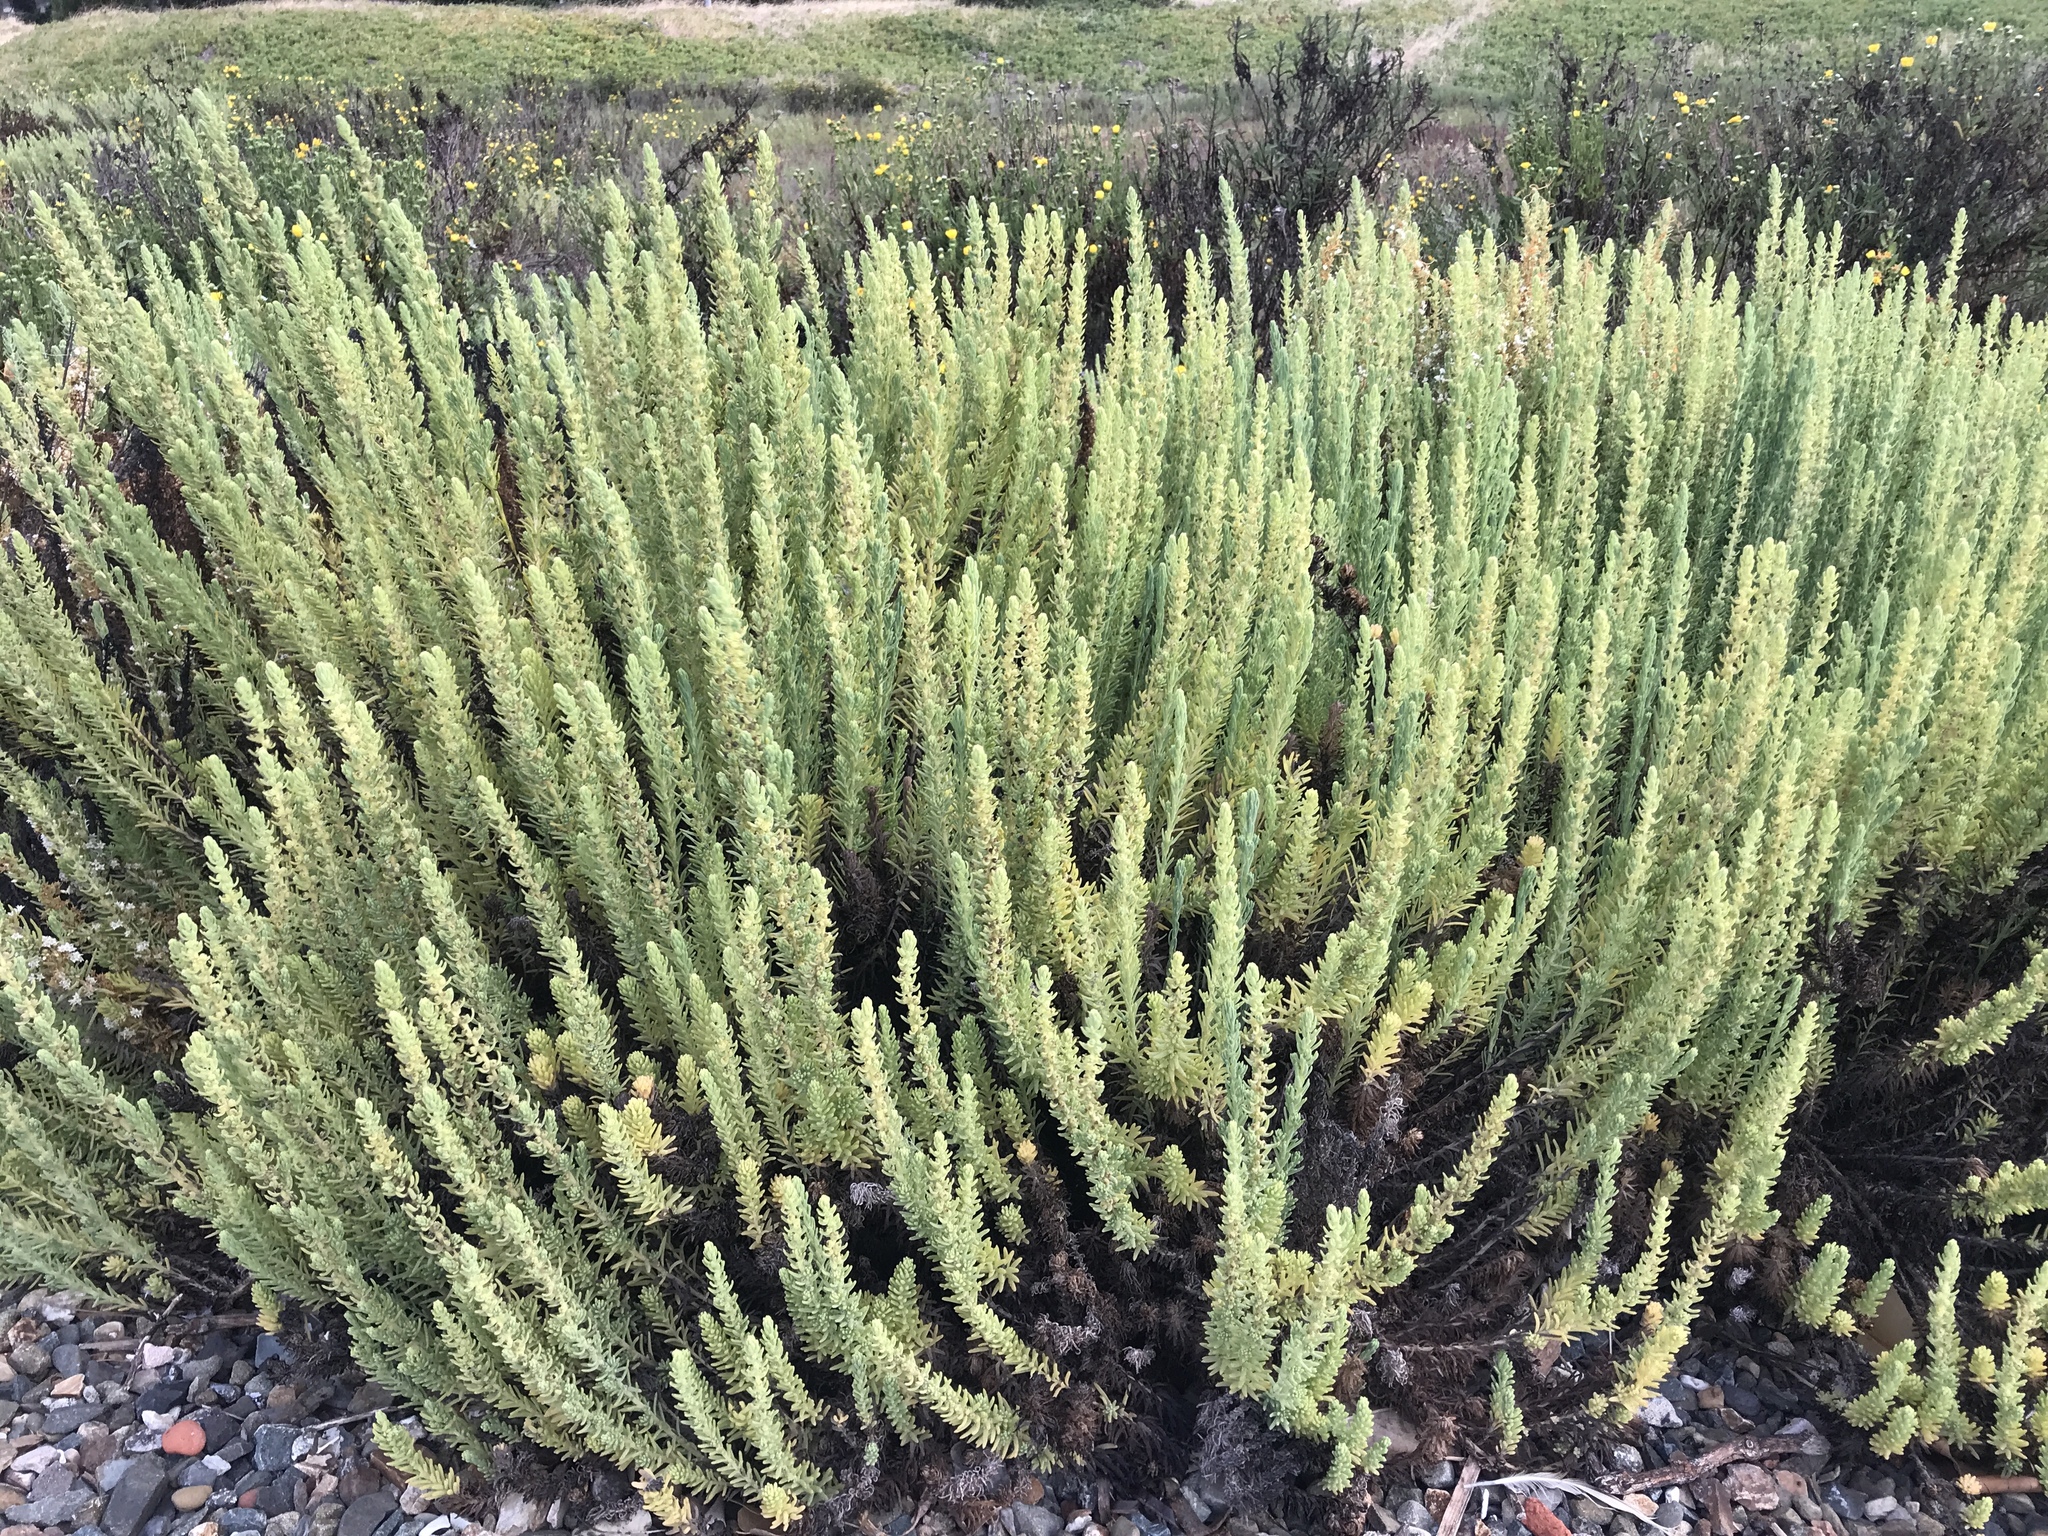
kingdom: Plantae
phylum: Tracheophyta
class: Magnoliopsida
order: Caryophyllales
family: Amaranthaceae
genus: Suaeda
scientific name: Suaeda californica
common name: California sea-blite
